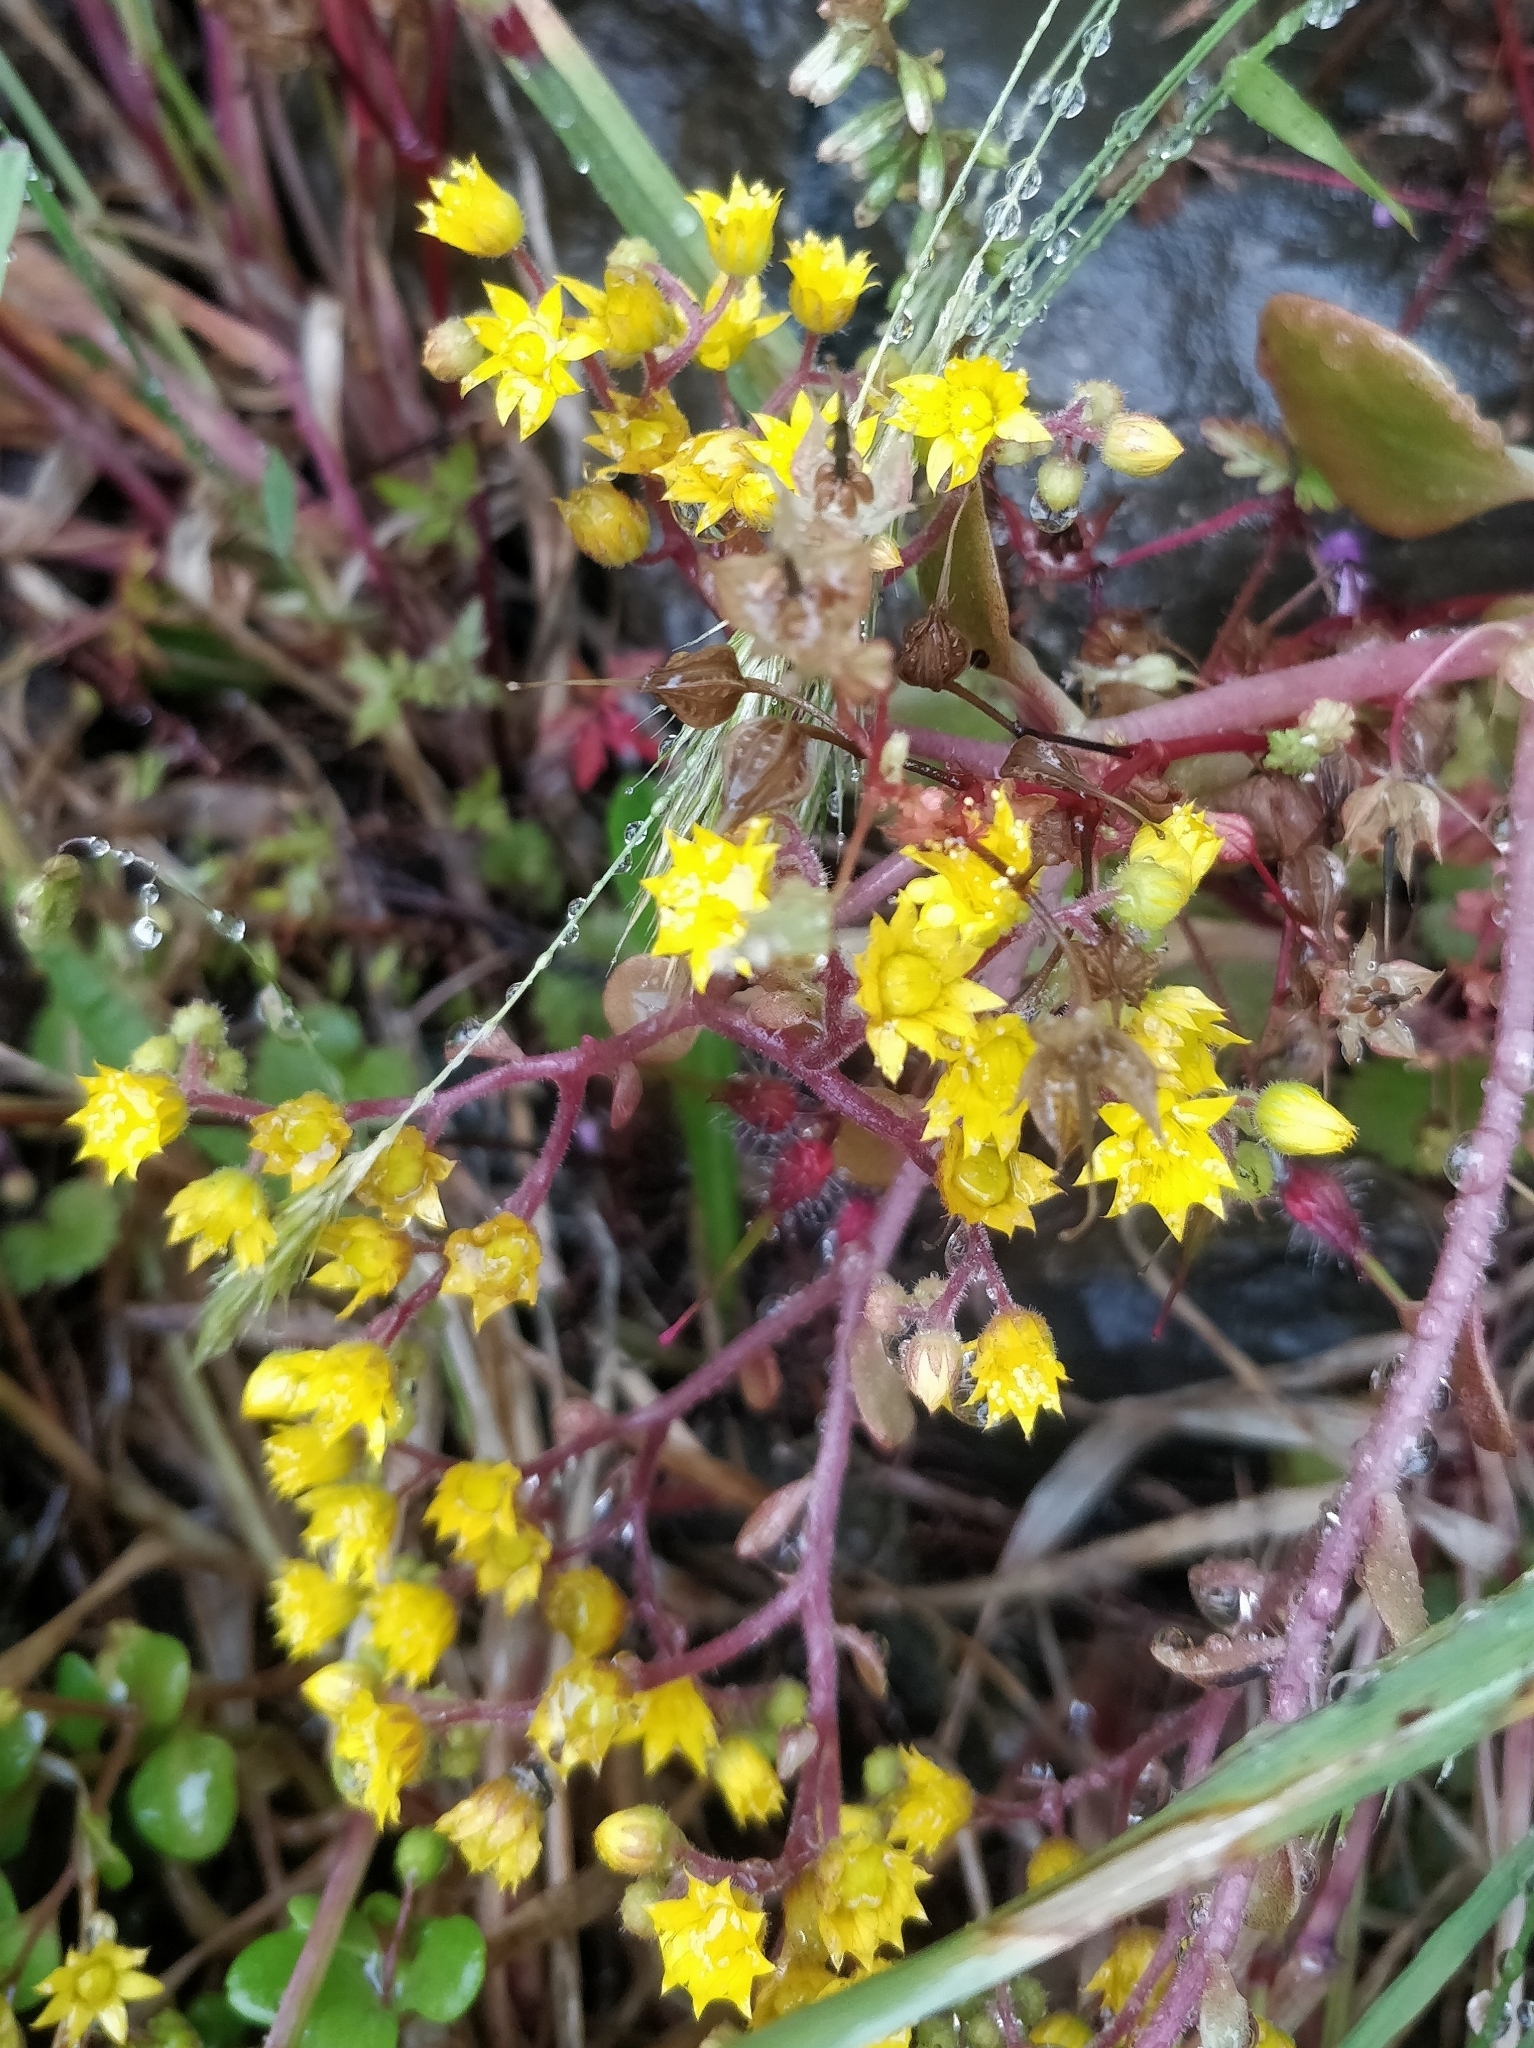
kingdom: Plantae
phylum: Tracheophyta
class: Magnoliopsida
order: Saxifragales
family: Crassulaceae
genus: Aichryson
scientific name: Aichryson divaricatum
